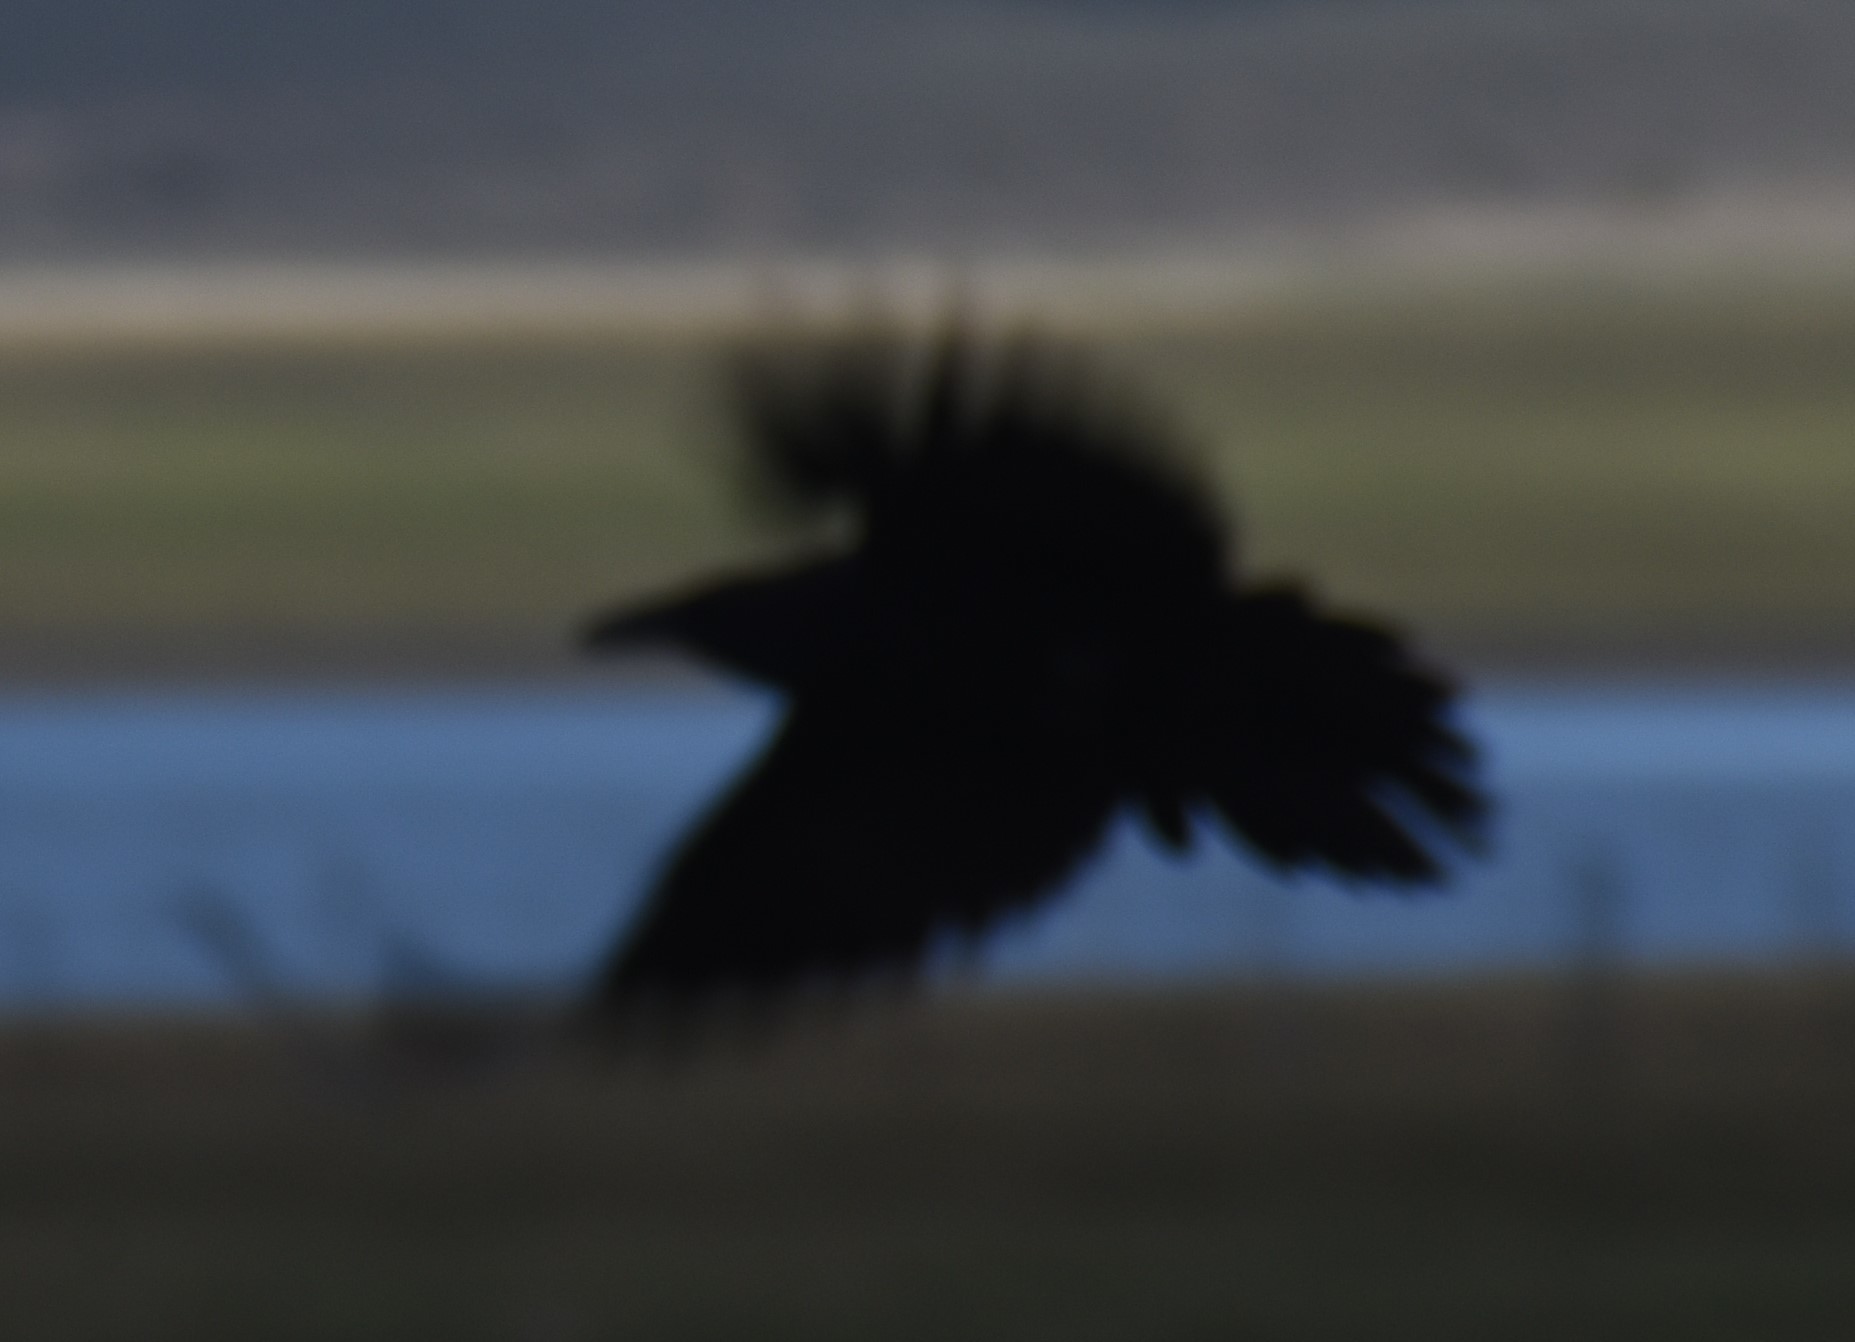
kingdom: Animalia
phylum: Chordata
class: Aves
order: Passeriformes
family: Corvidae
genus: Corvus
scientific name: Corvus corax
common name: Common raven
